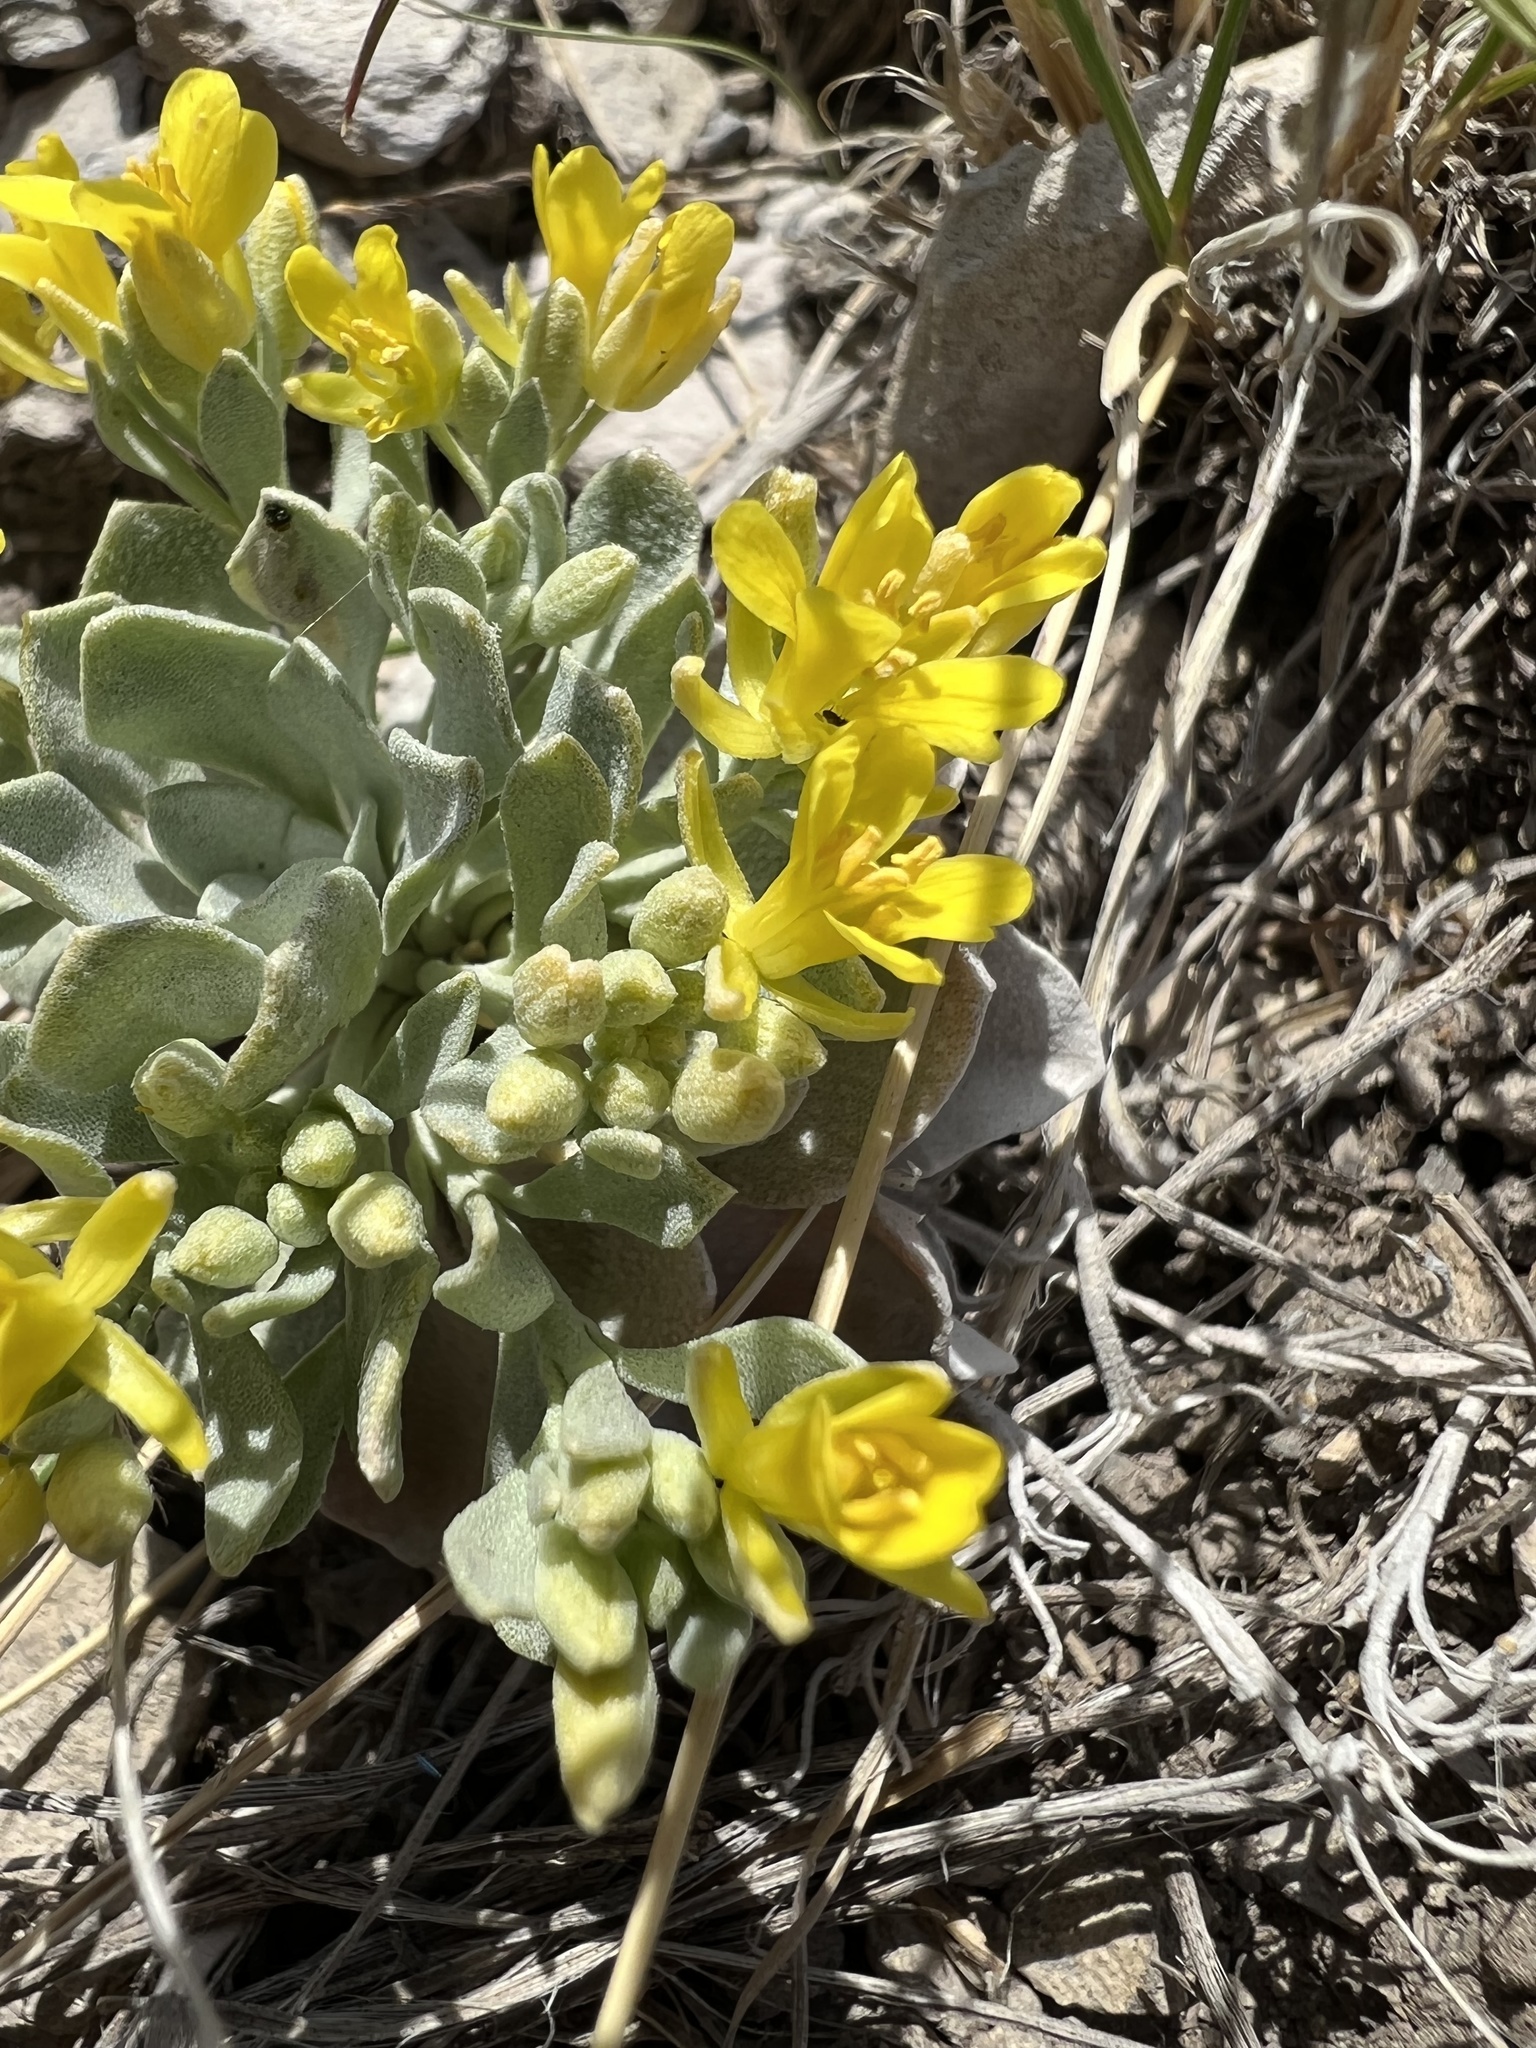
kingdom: Plantae
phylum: Tracheophyta
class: Magnoliopsida
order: Brassicales
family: Brassicaceae
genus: Physaria
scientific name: Physaria bellii
